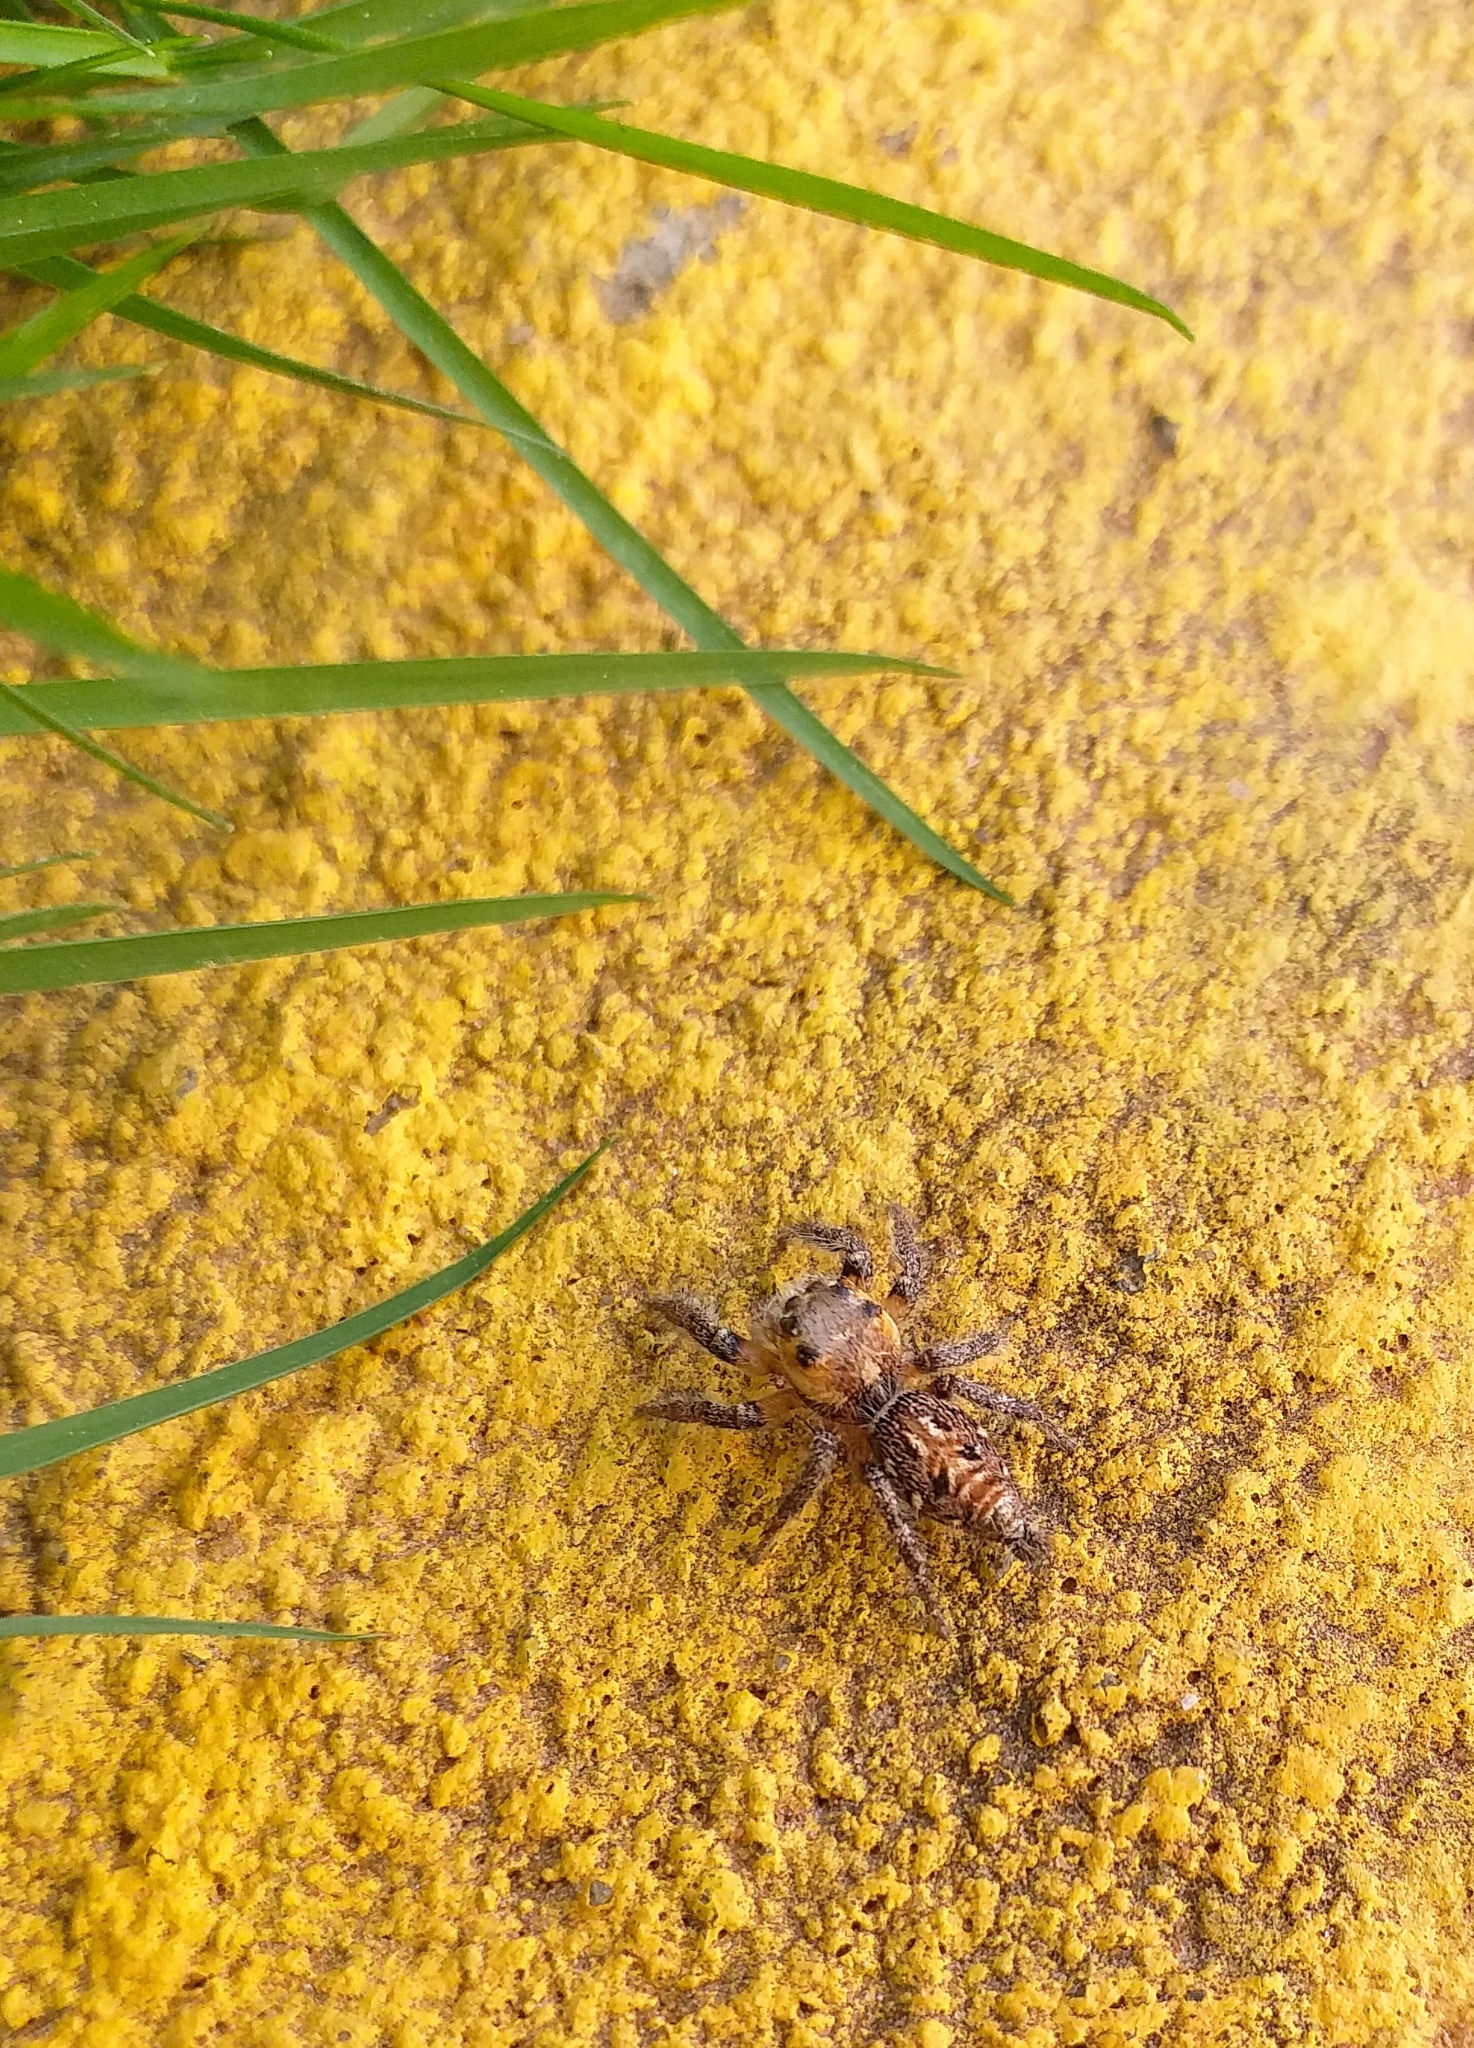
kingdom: Animalia
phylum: Arthropoda
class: Arachnida
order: Araneae
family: Salticidae
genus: Hyllus
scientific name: Hyllus semicupreus
